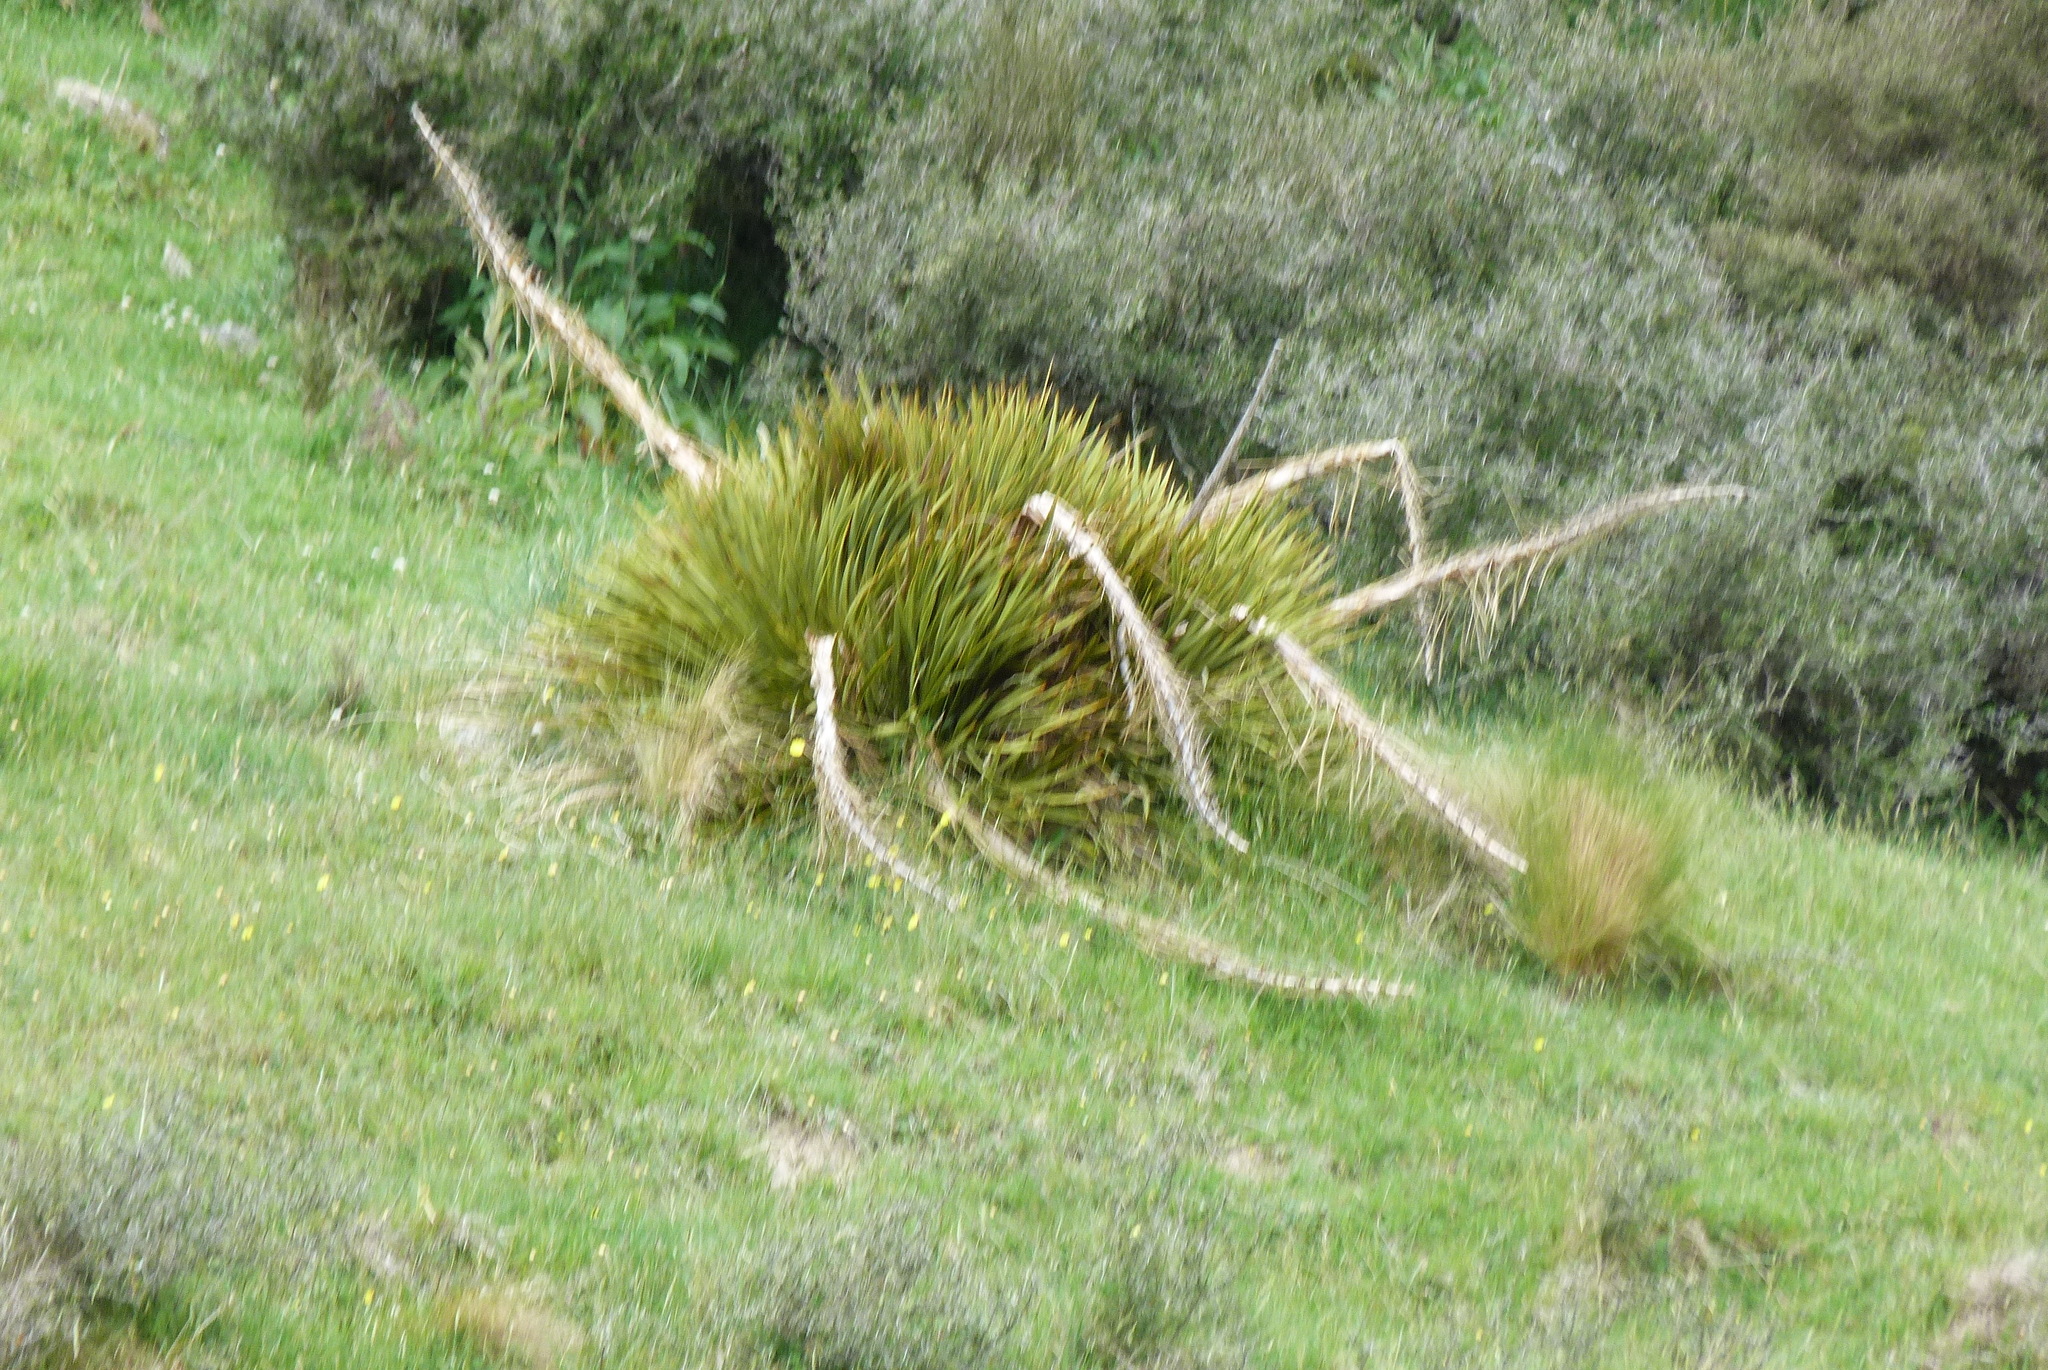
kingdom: Plantae
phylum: Tracheophyta
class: Magnoliopsida
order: Apiales
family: Apiaceae
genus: Aciphylla
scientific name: Aciphylla aurea
